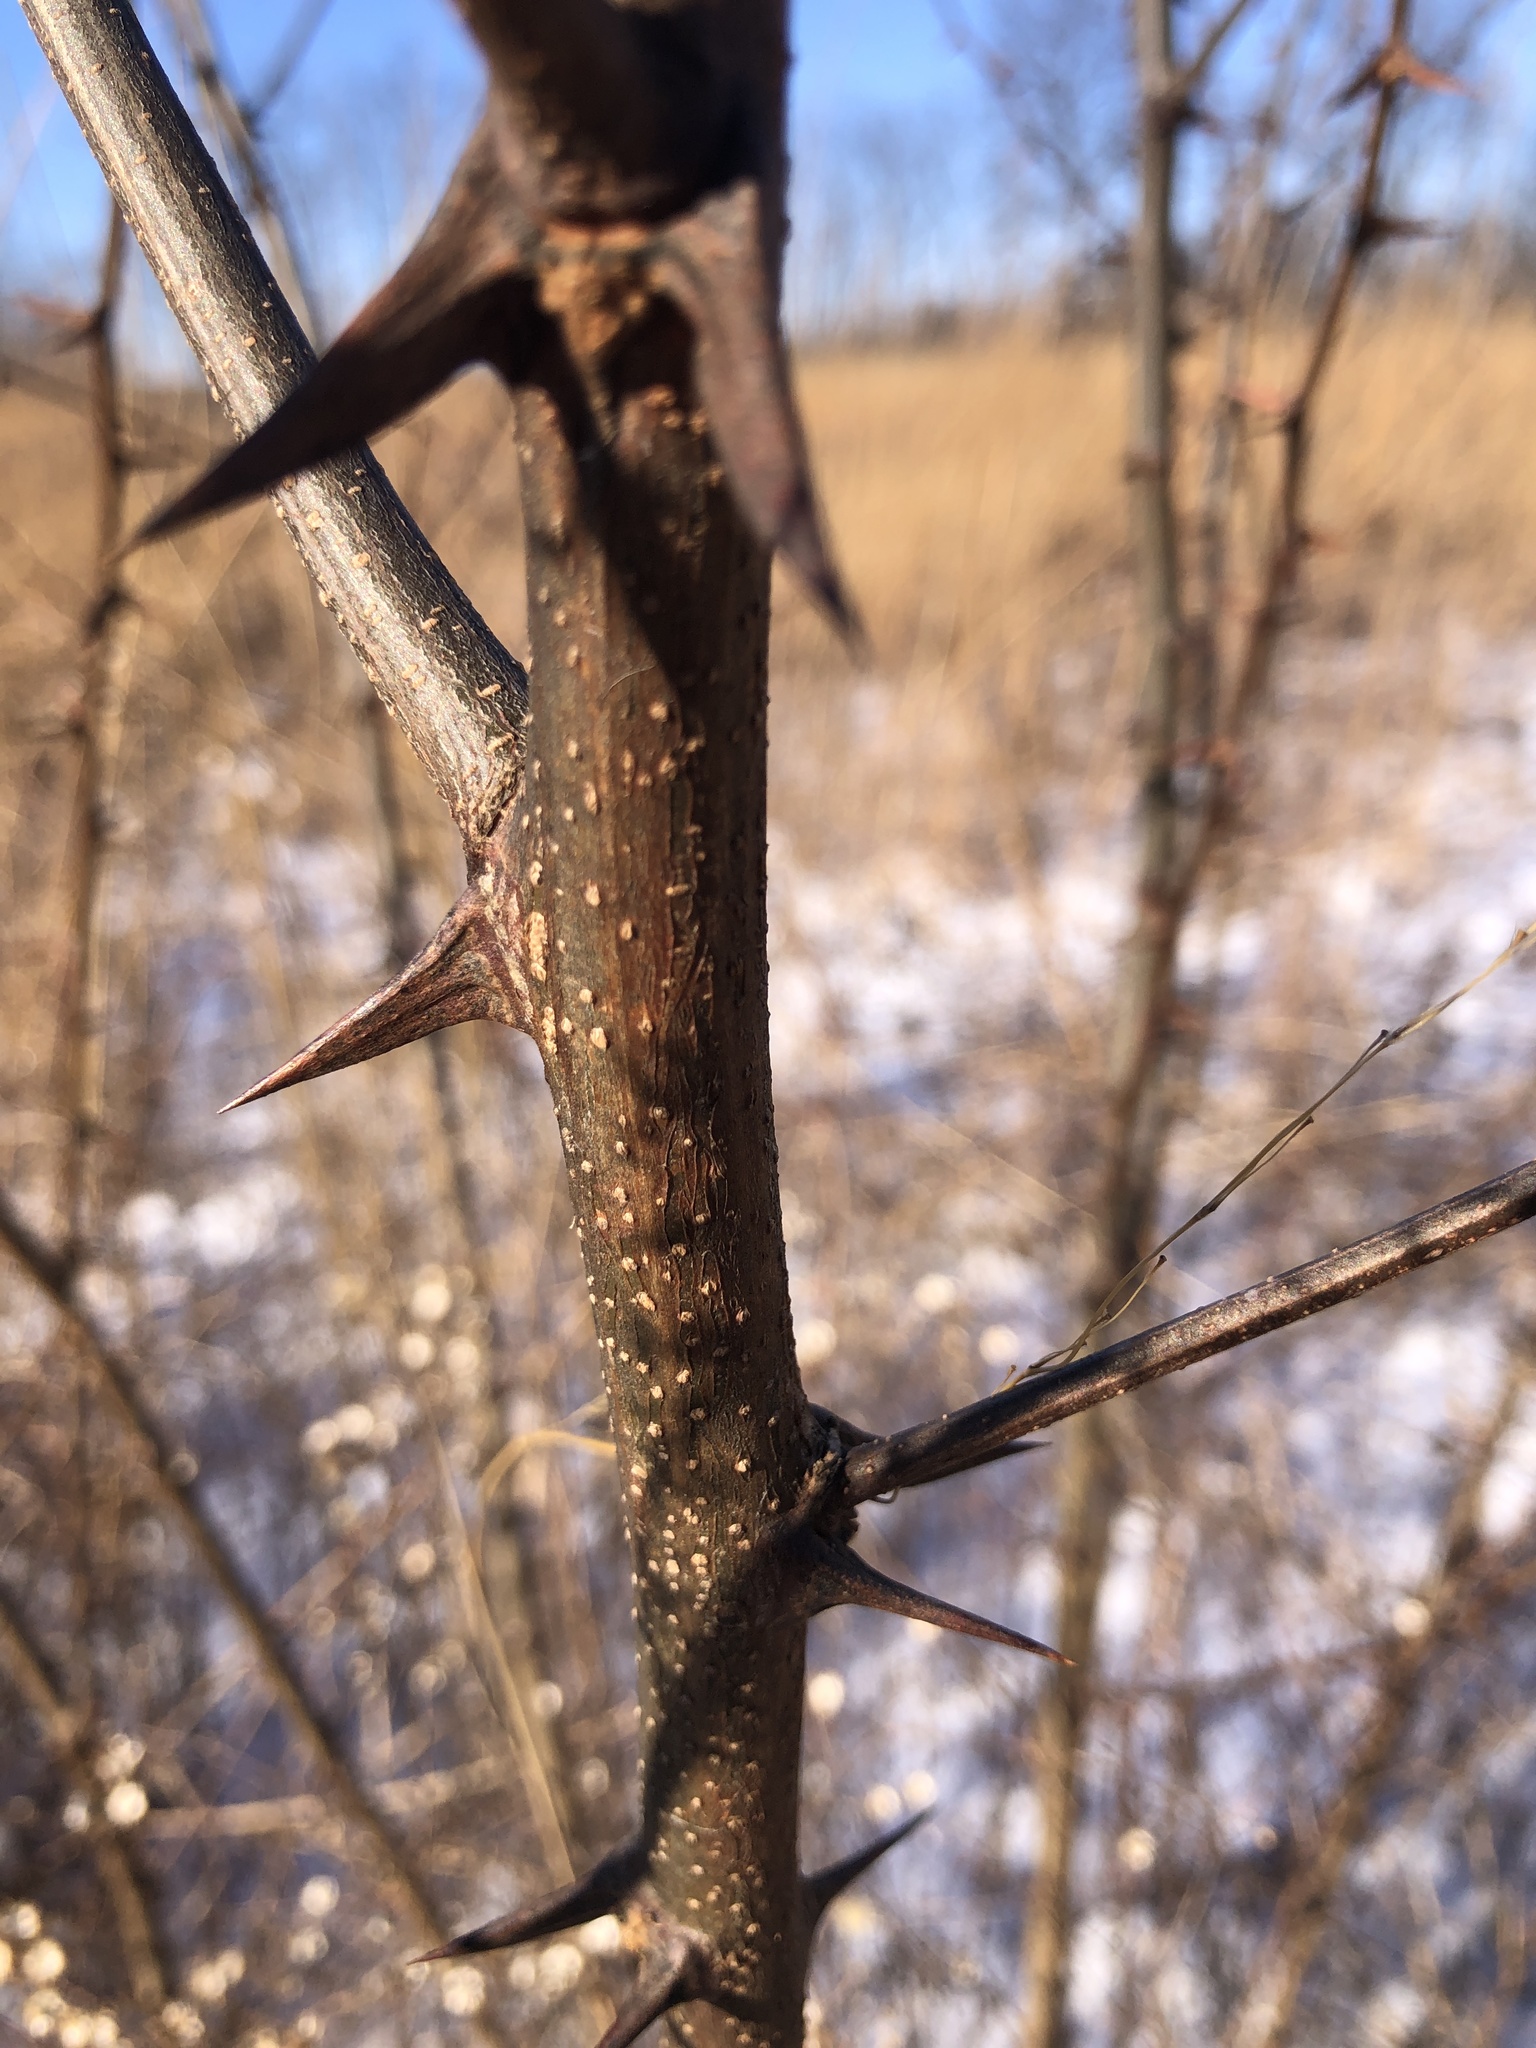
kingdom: Plantae
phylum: Tracheophyta
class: Magnoliopsida
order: Fabales
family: Fabaceae
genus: Robinia
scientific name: Robinia pseudoacacia
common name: Black locust
